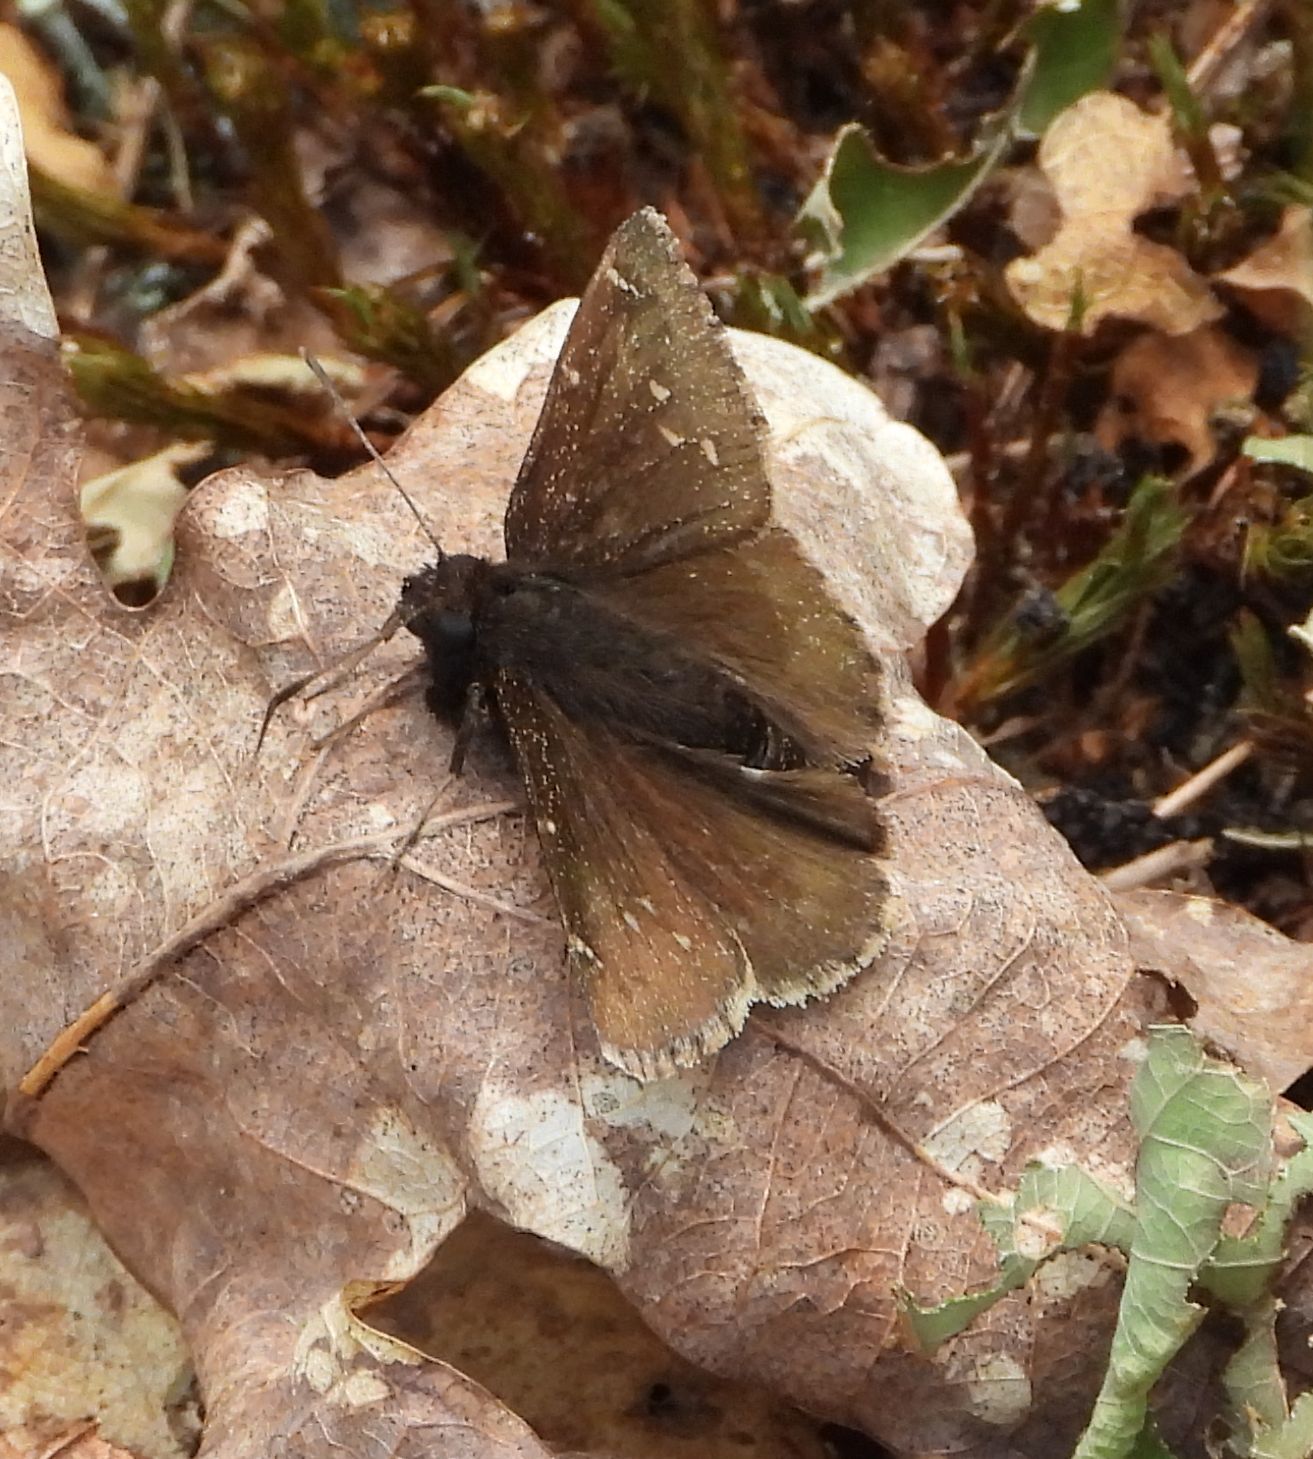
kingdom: Animalia
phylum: Arthropoda
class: Insecta
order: Lepidoptera
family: Hesperiidae
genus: Thorybes
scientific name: Thorybes pylades
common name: Northern cloudywing
